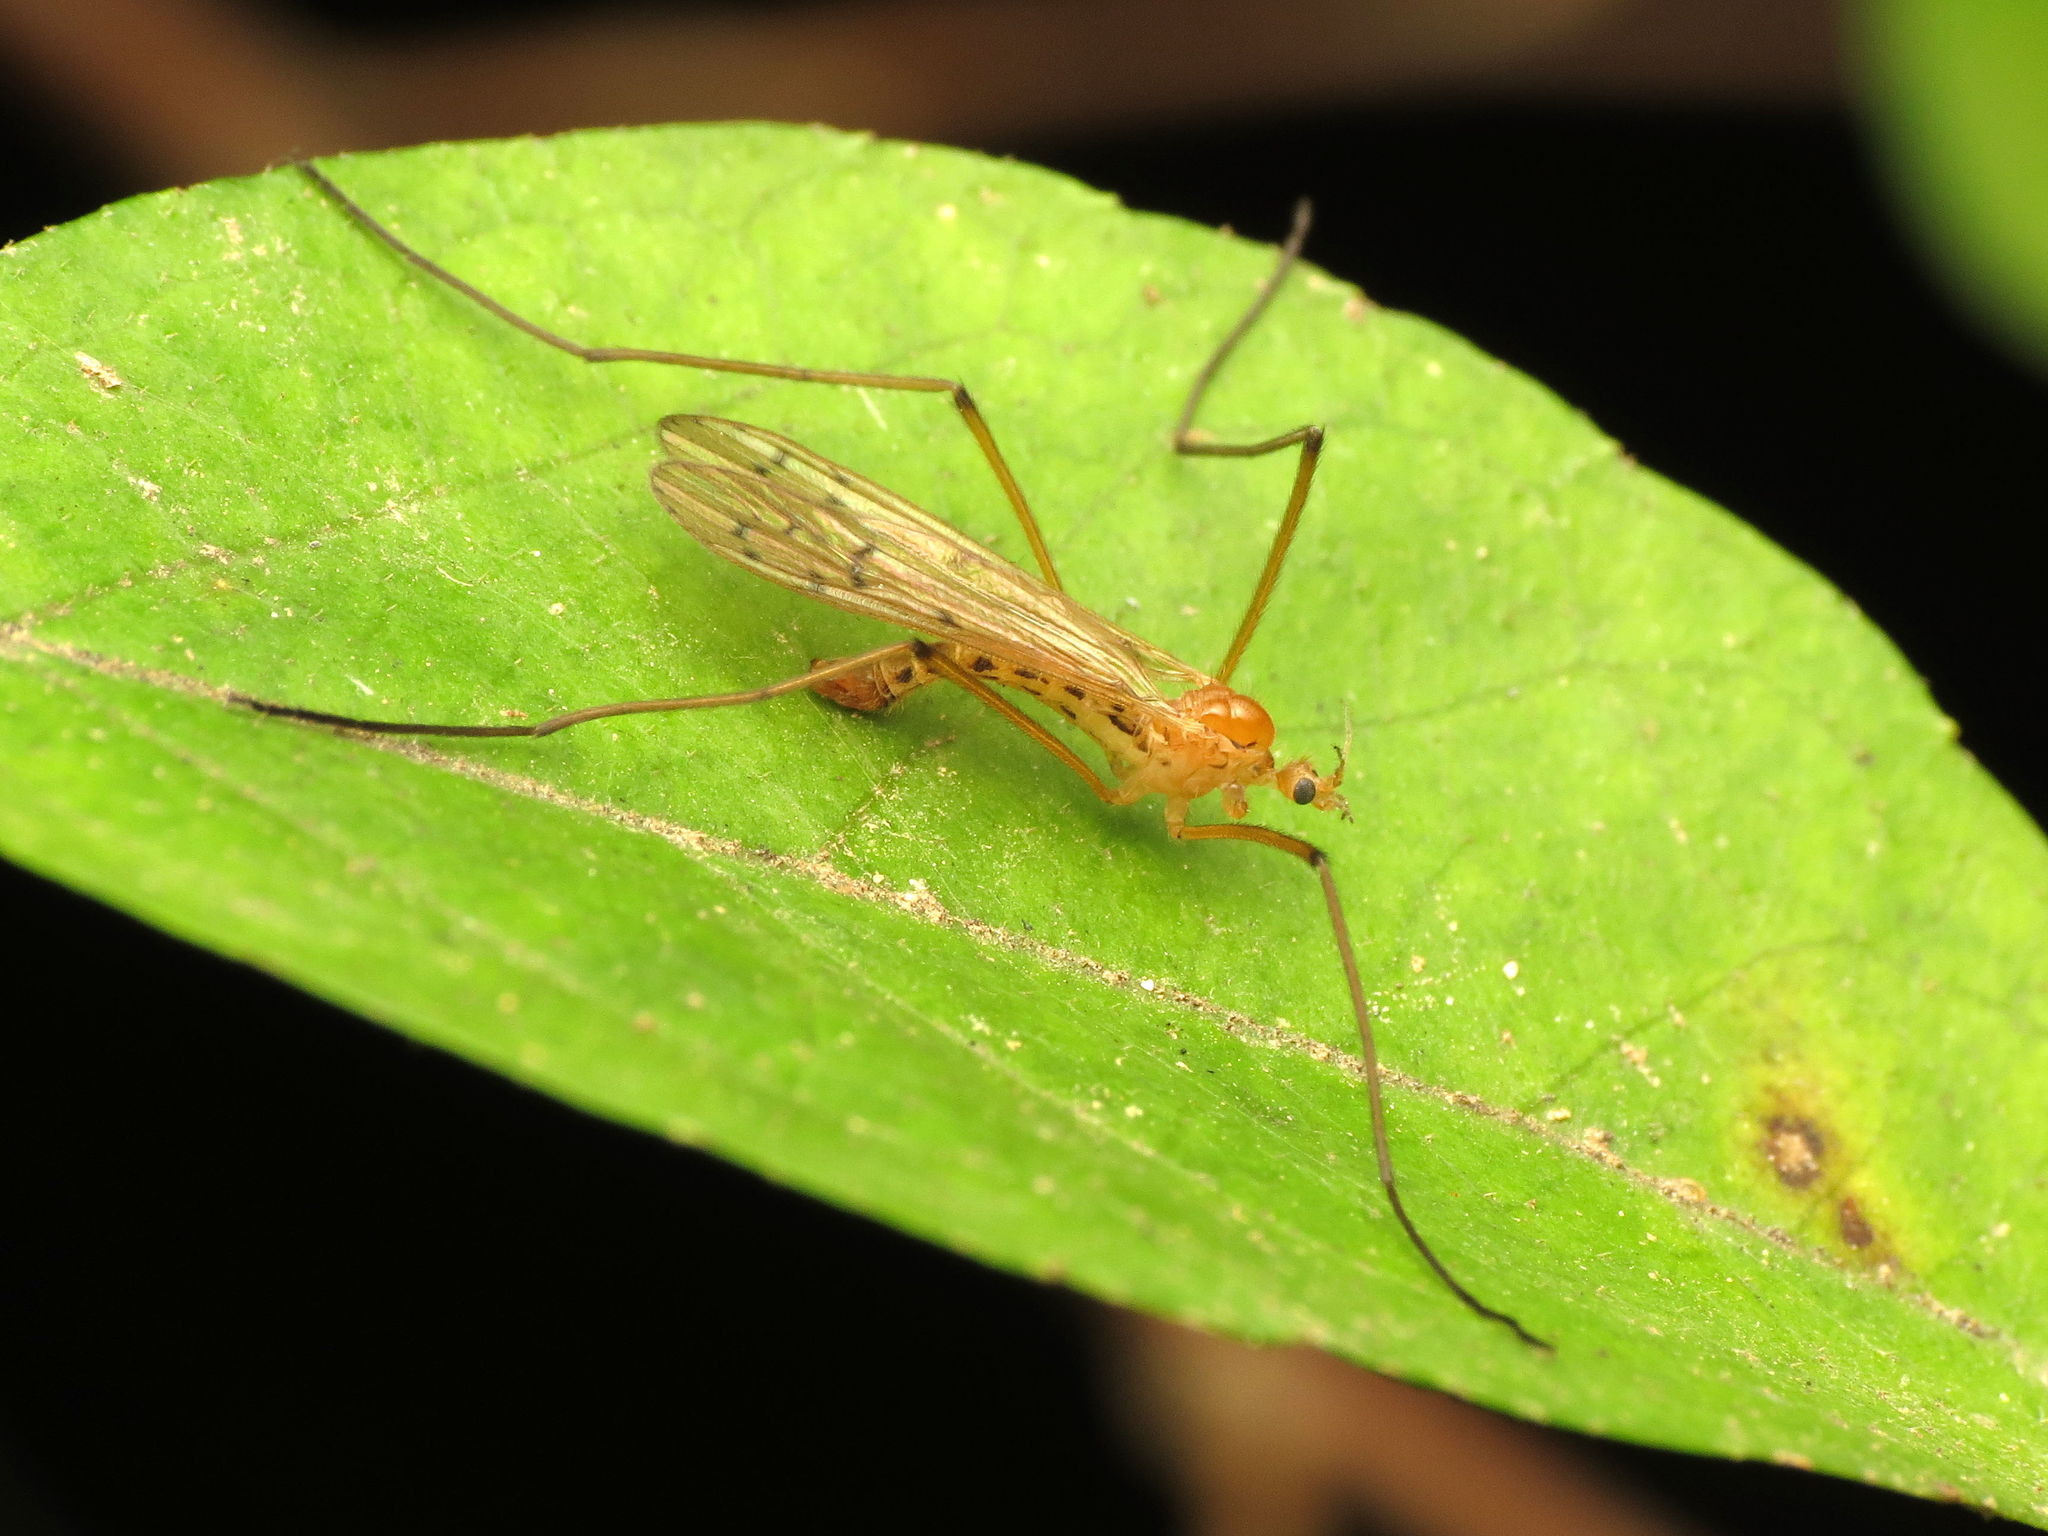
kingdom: Animalia
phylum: Arthropoda
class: Insecta
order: Diptera
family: Limoniidae
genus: Cladura
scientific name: Cladura flavoferruginea
